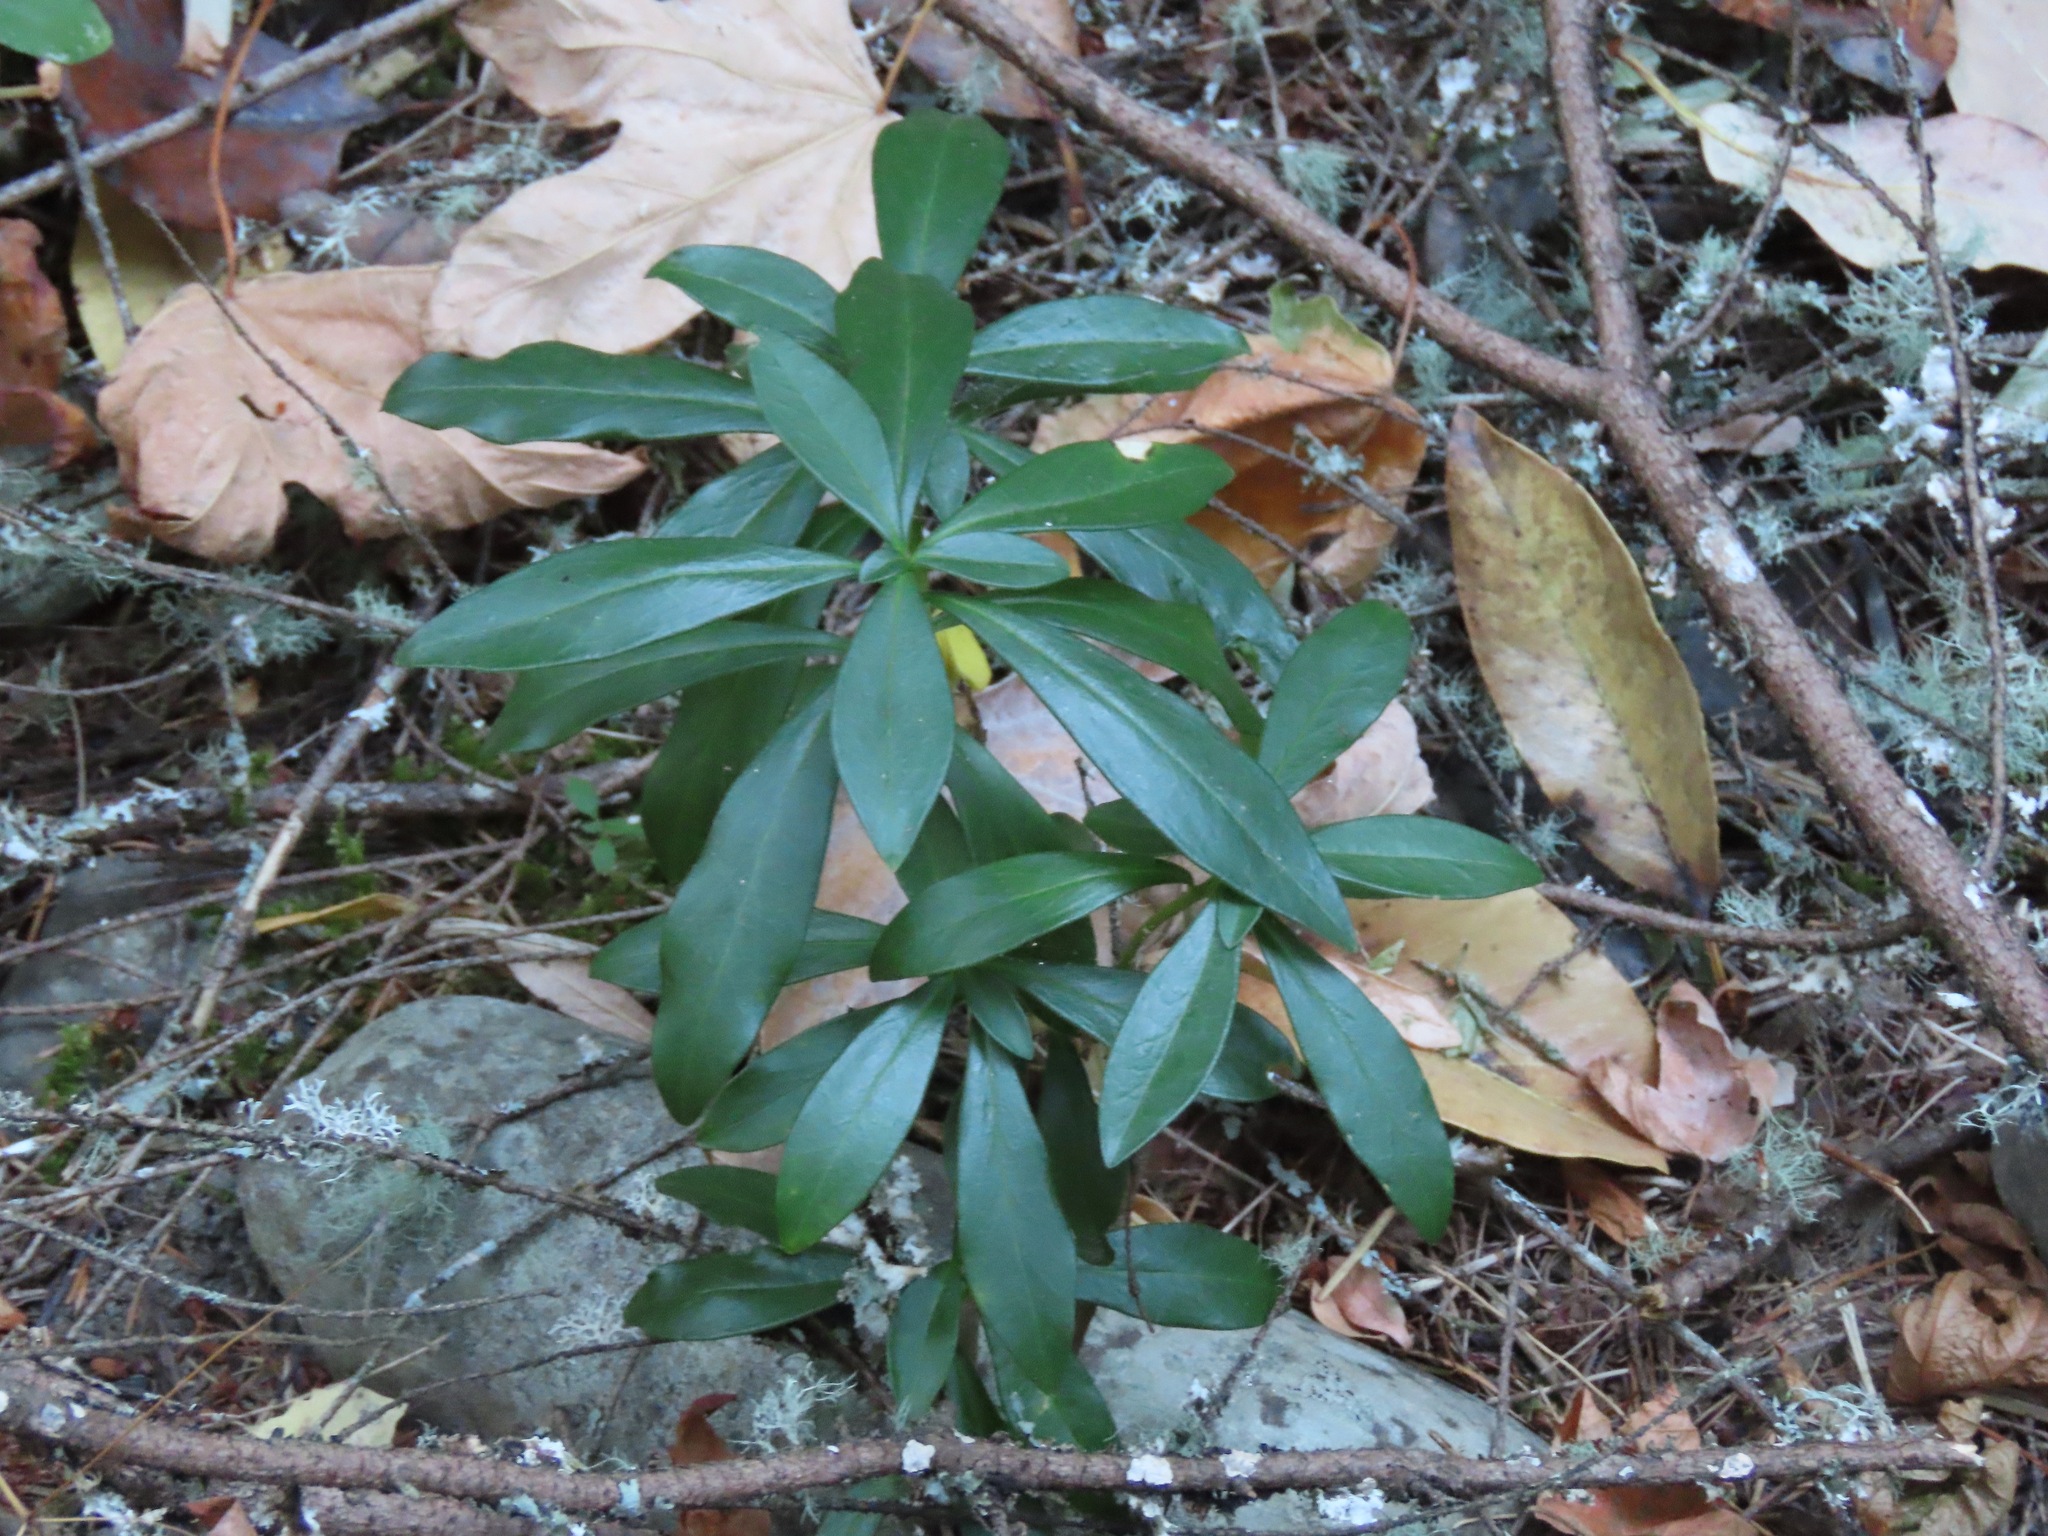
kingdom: Plantae
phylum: Tracheophyta
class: Magnoliopsida
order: Malvales
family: Thymelaeaceae
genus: Daphne
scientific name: Daphne laureola
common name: Spurge-laurel
